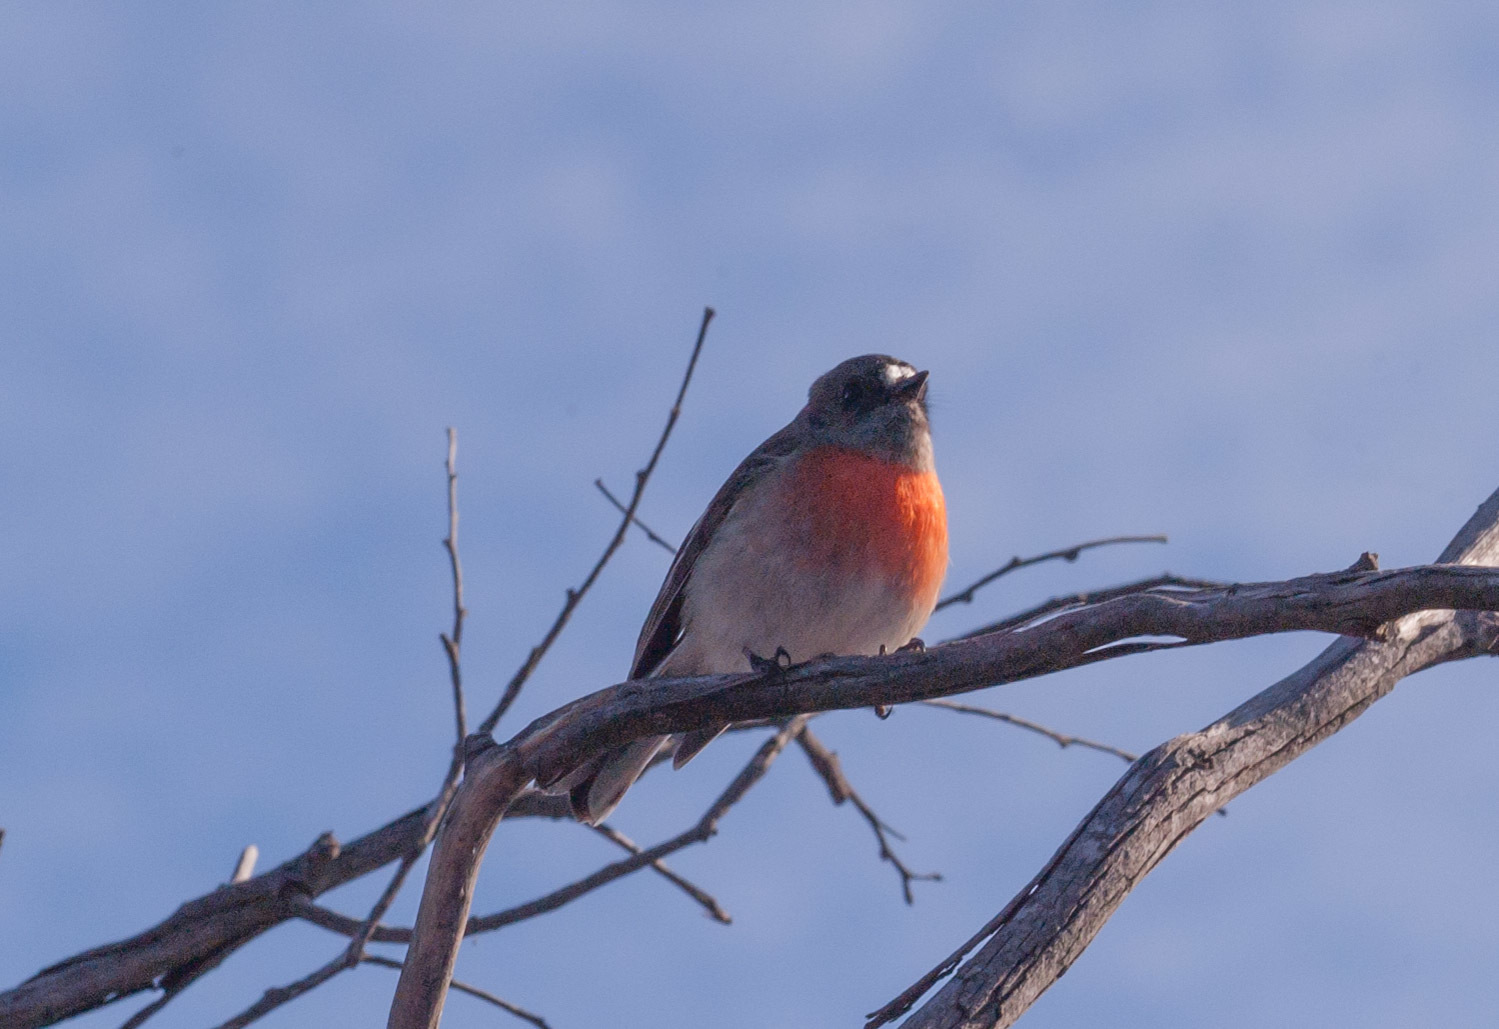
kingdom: Animalia
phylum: Chordata
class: Aves
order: Passeriformes
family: Petroicidae
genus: Petroica
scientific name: Petroica boodang
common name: Scarlet robin
